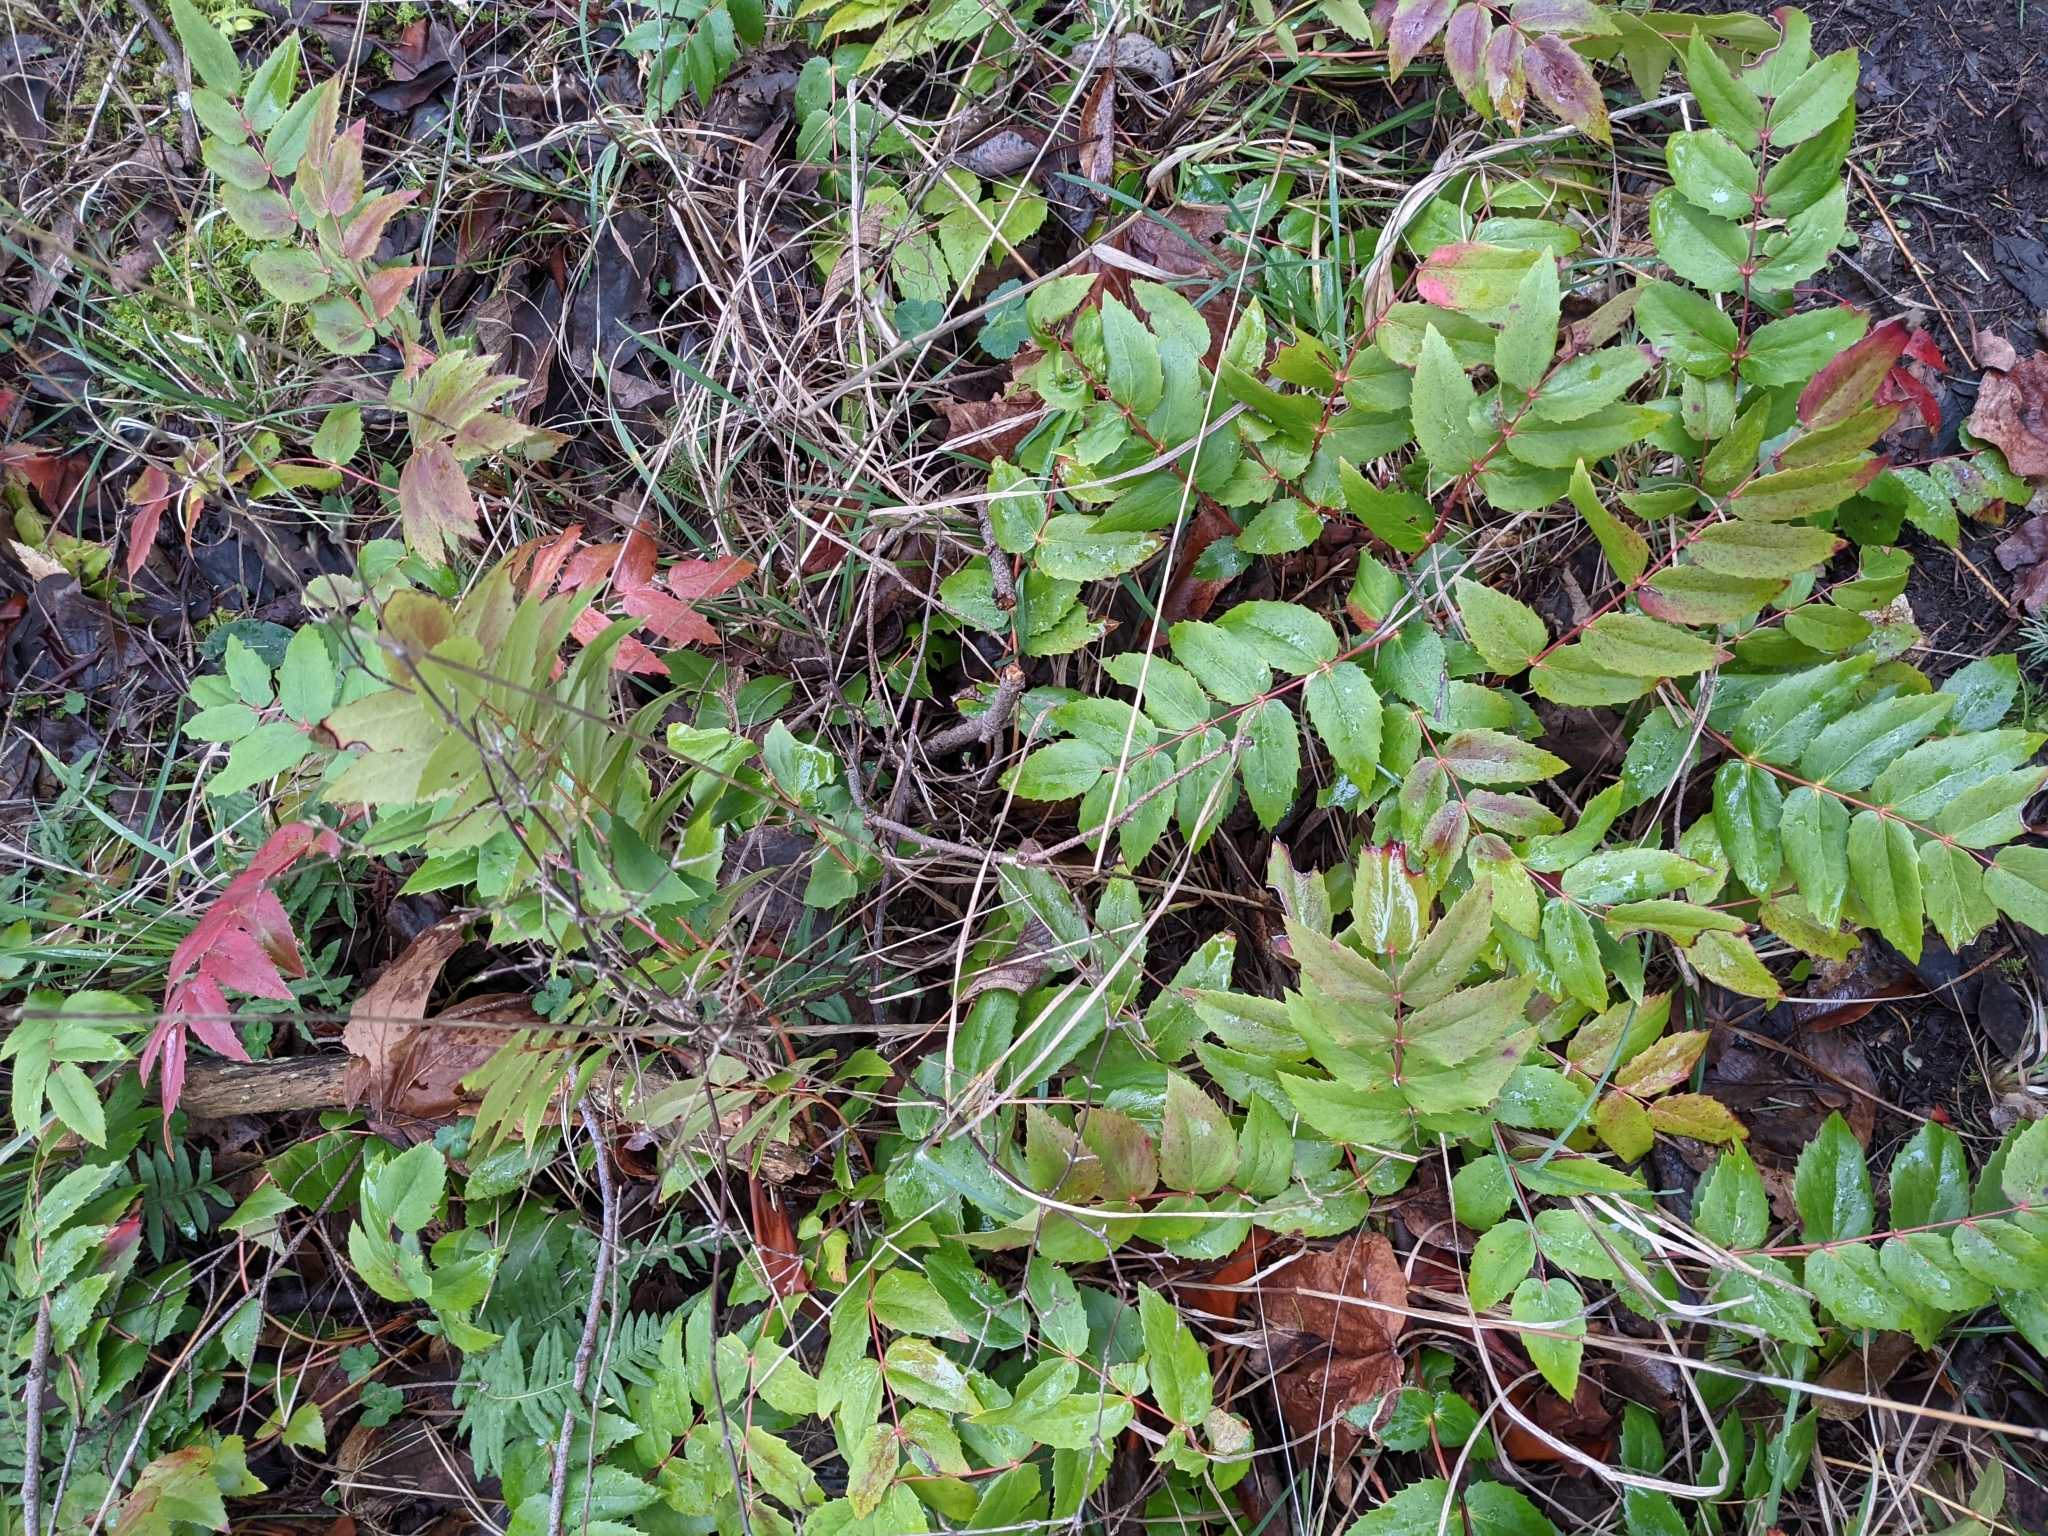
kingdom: Plantae
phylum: Tracheophyta
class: Magnoliopsida
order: Ranunculales
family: Berberidaceae
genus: Mahonia
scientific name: Mahonia nervosa
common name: Cascade oregon-grape
